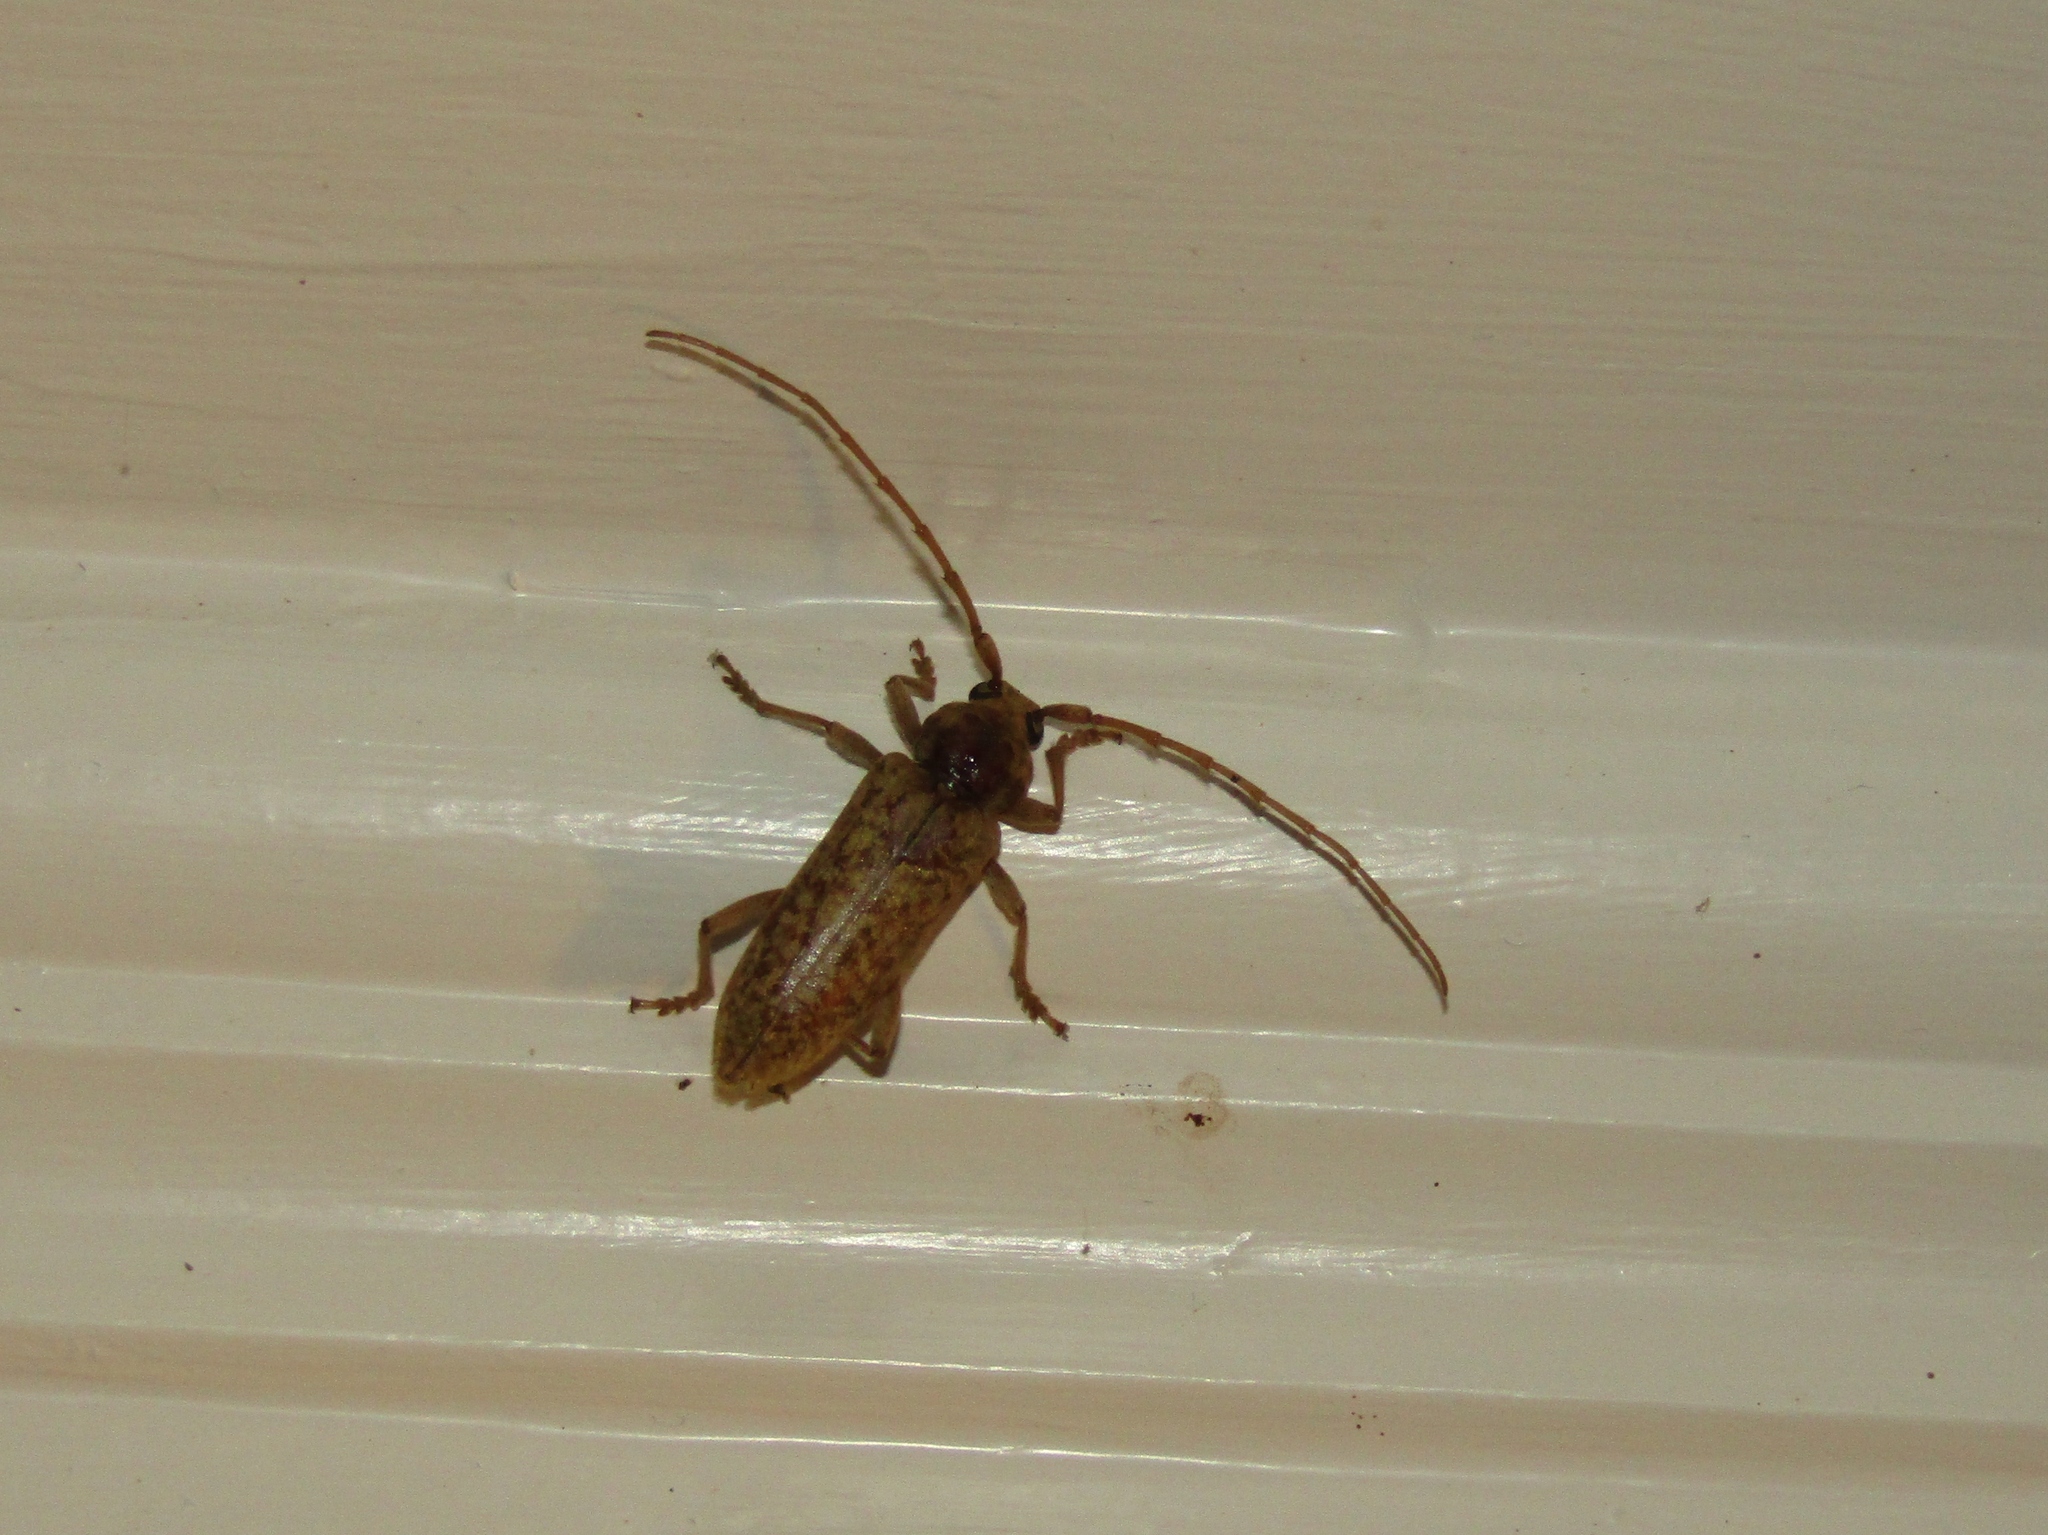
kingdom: Animalia
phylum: Arthropoda
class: Insecta
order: Coleoptera
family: Cerambycidae
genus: Enaphalodes
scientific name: Enaphalodes rufulus
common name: Red oak borer
